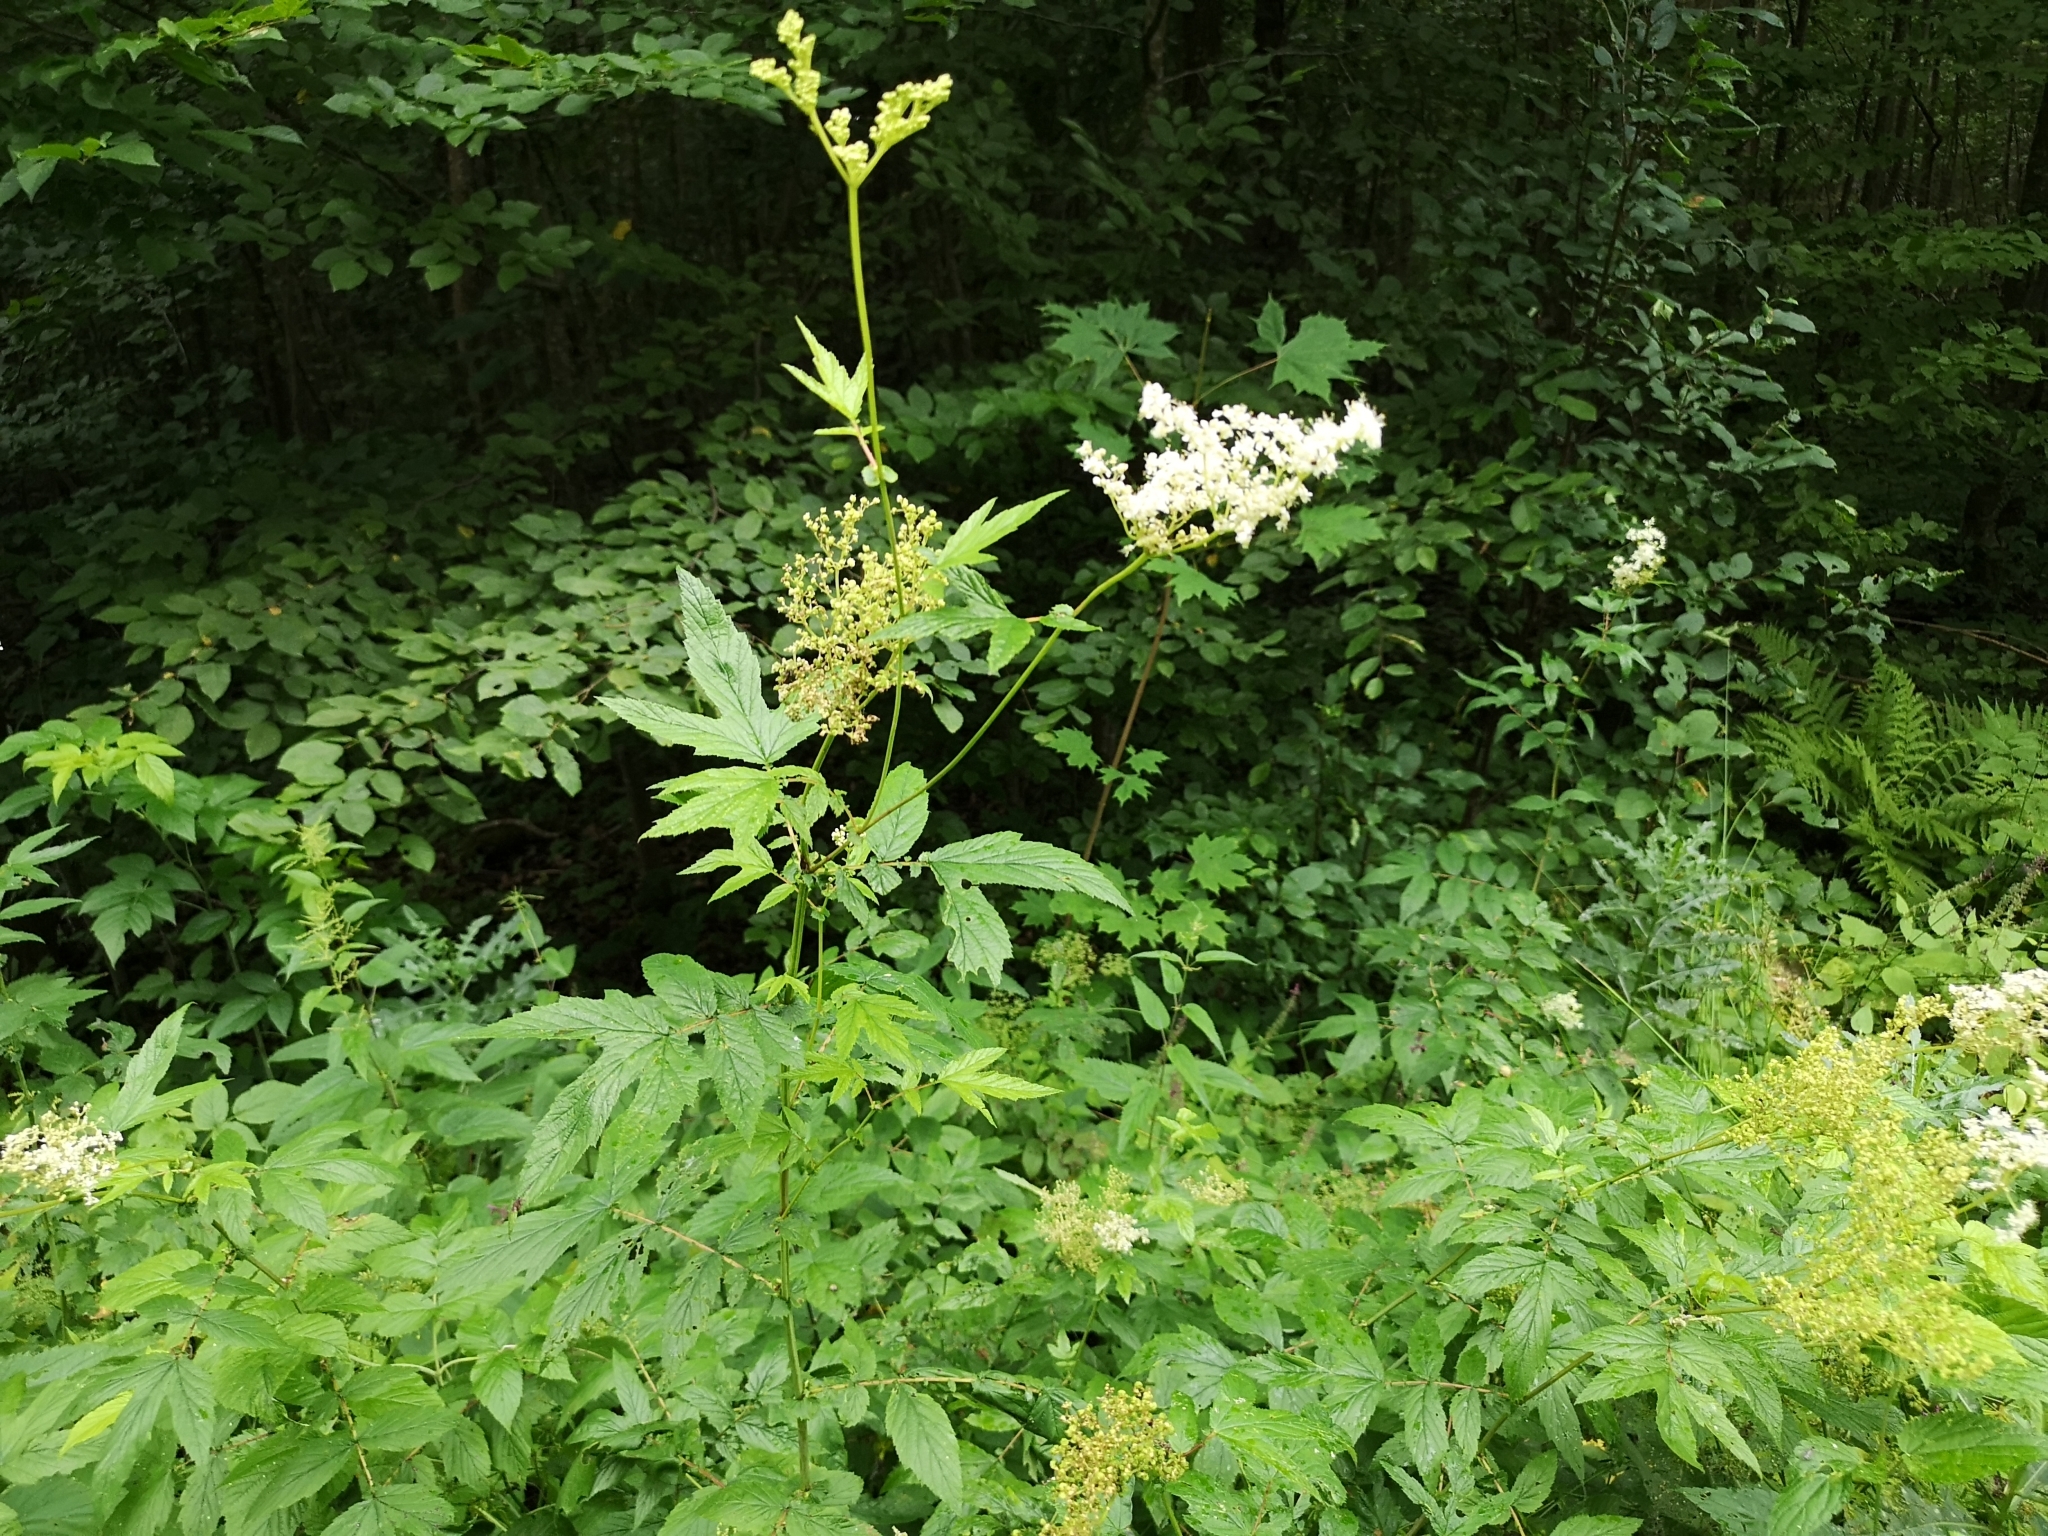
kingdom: Plantae
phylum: Tracheophyta
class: Magnoliopsida
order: Rosales
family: Rosaceae
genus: Filipendula
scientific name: Filipendula ulmaria
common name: Meadowsweet
